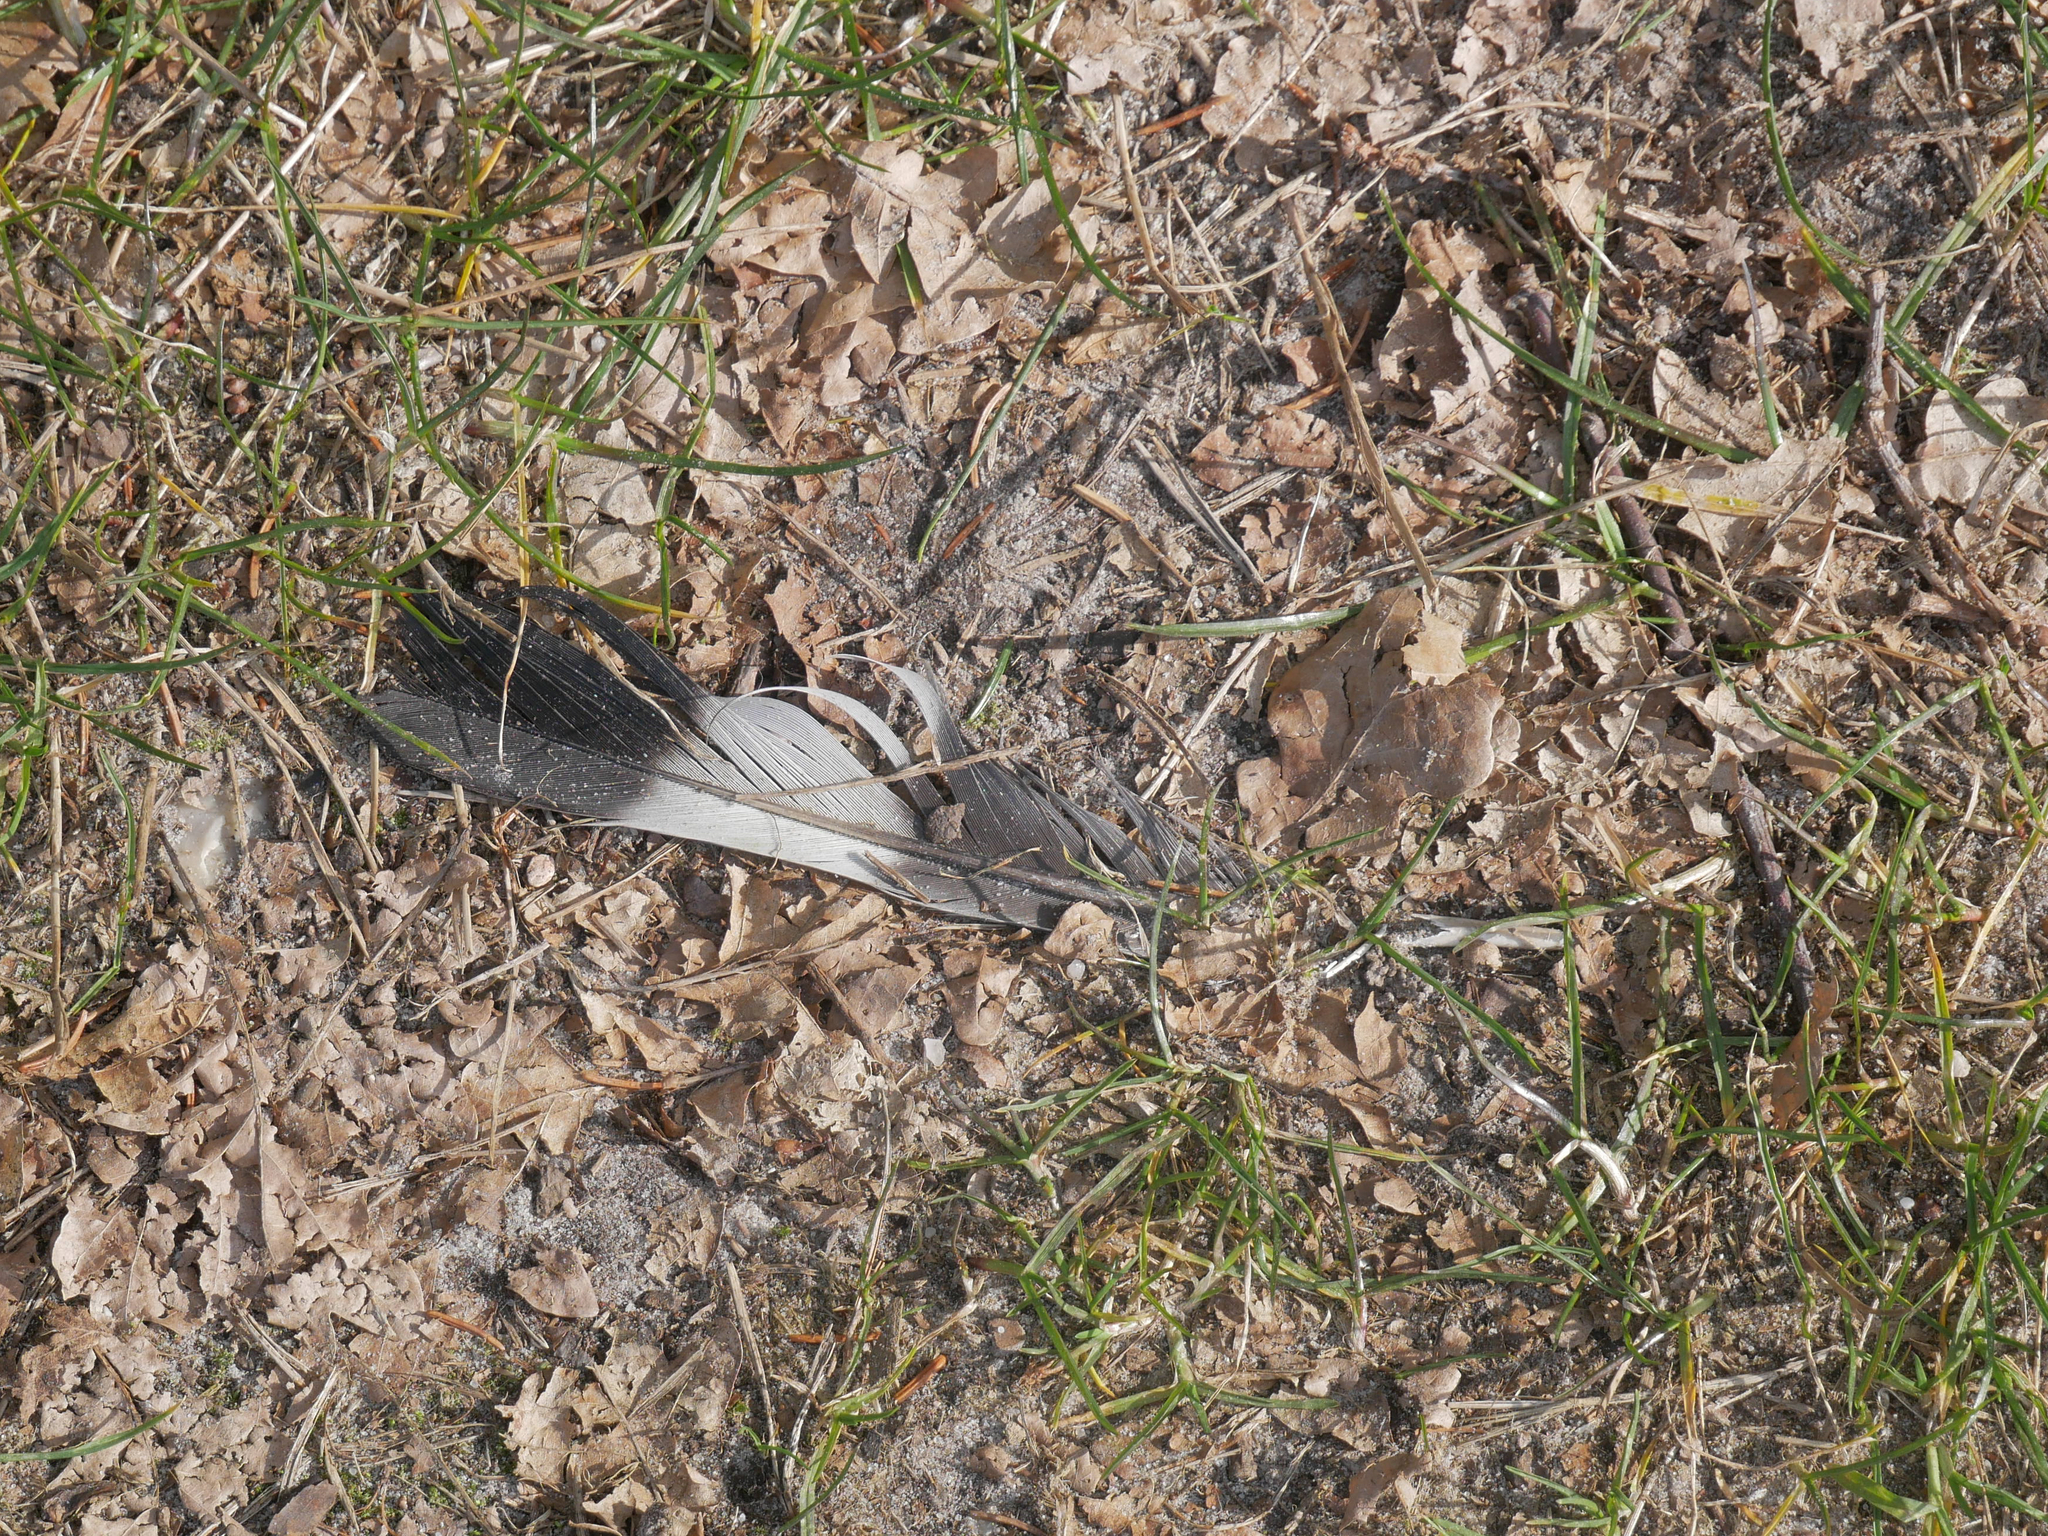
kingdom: Animalia
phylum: Chordata
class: Aves
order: Columbiformes
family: Columbidae
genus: Columba
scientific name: Columba palumbus
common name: Common wood pigeon
